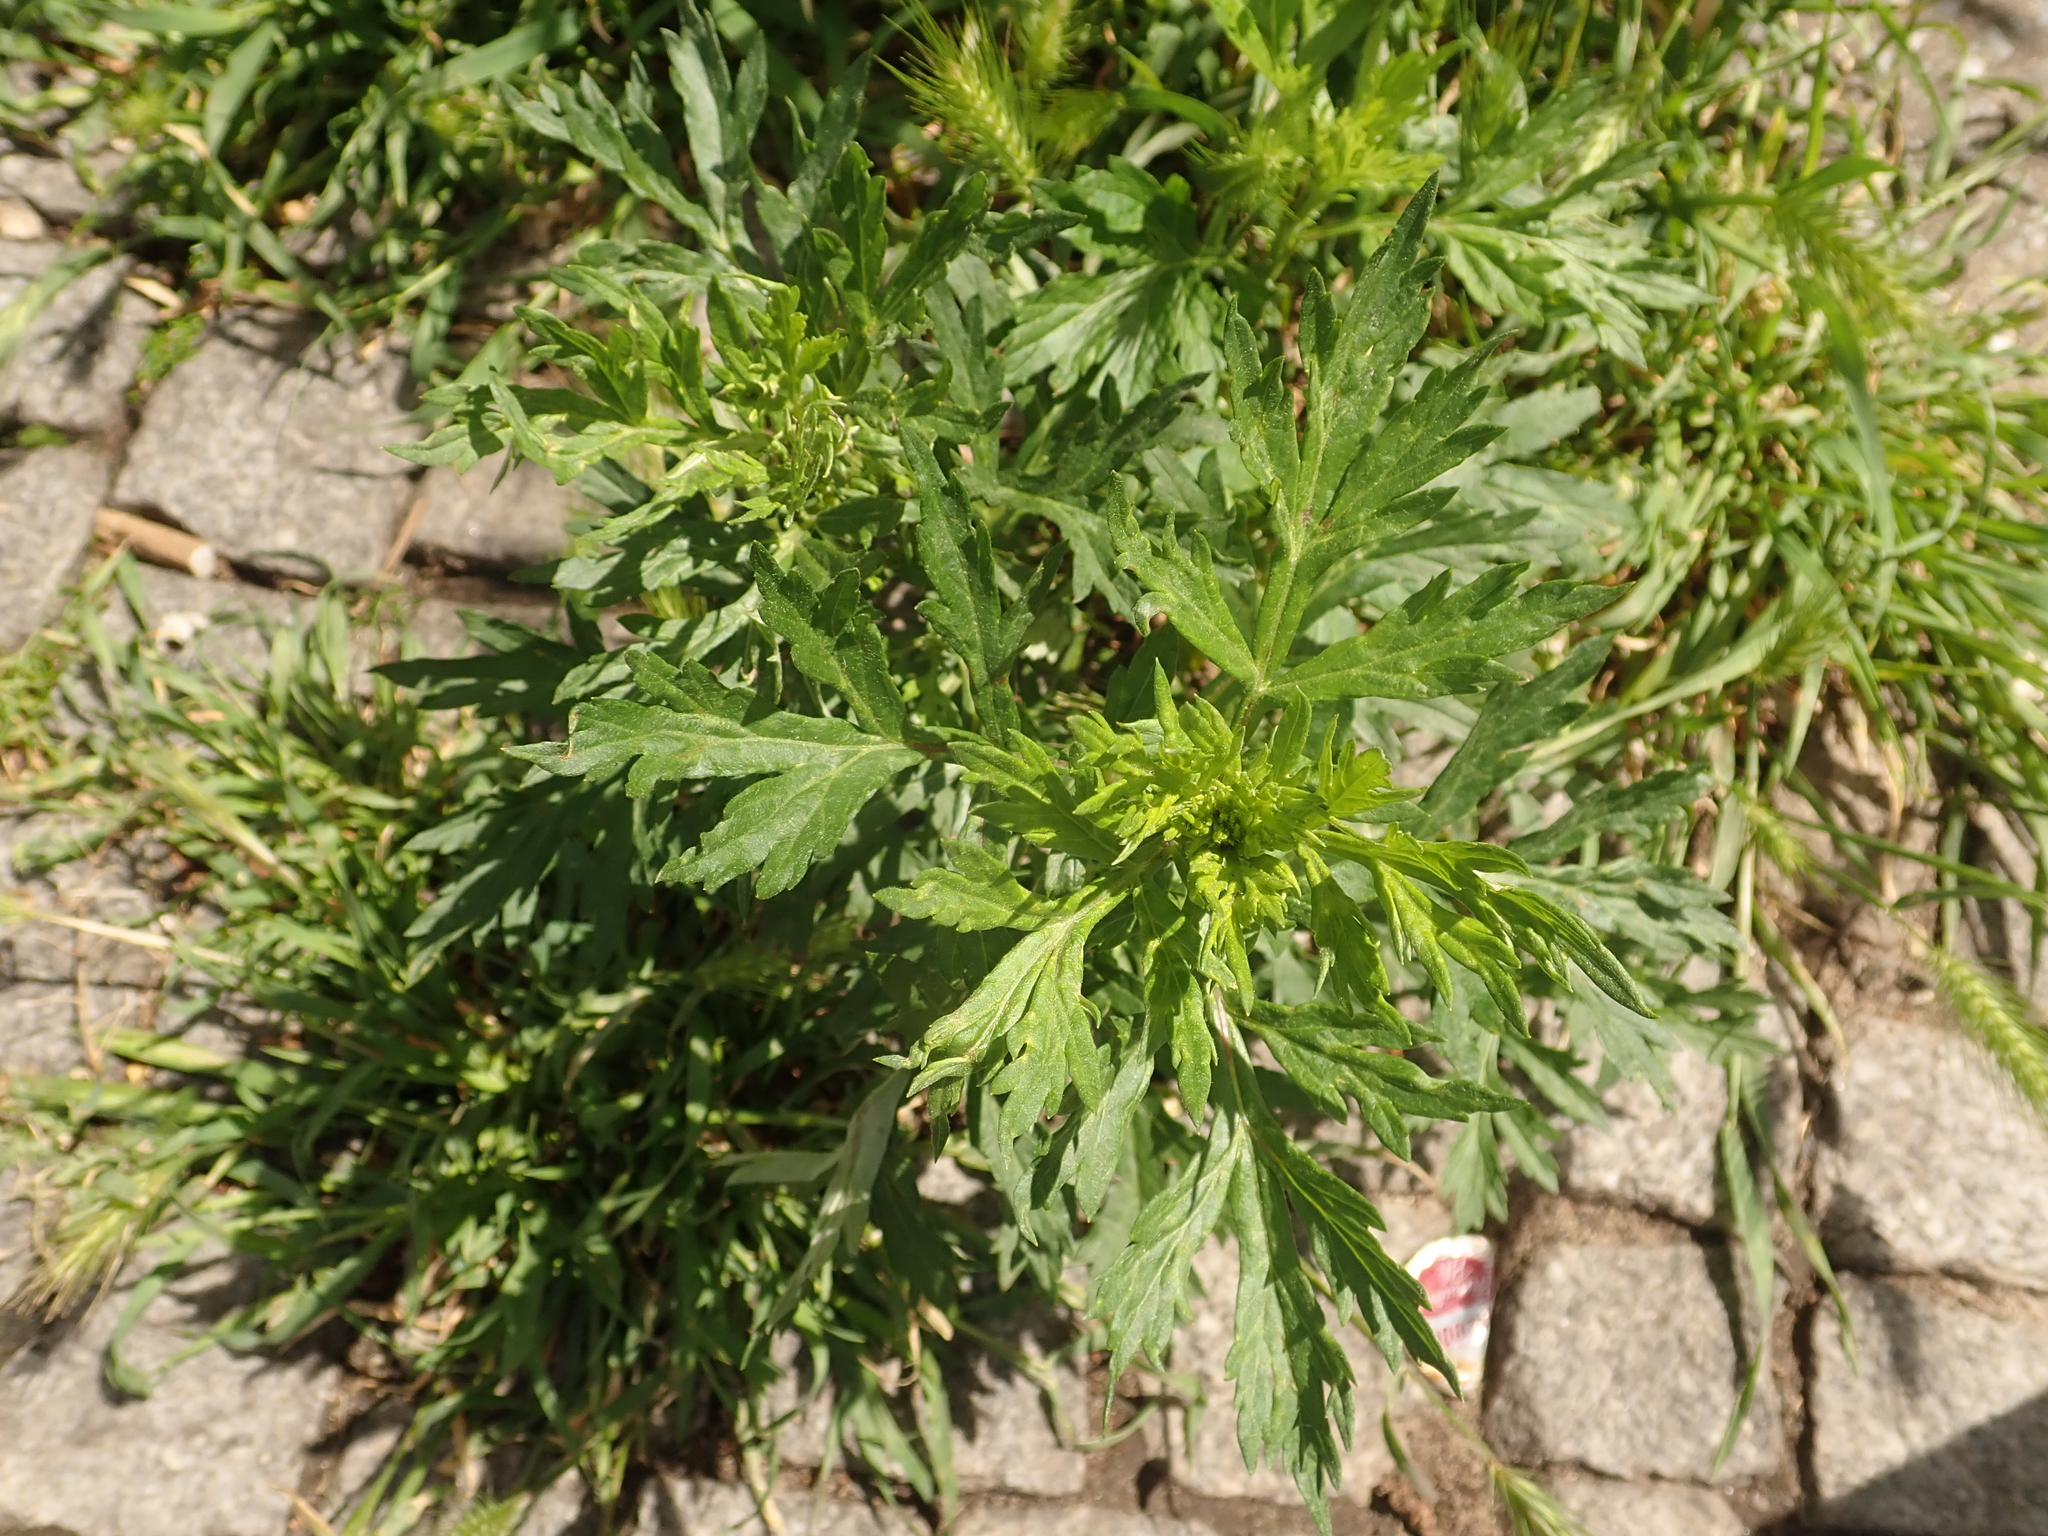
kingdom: Plantae
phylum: Tracheophyta
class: Magnoliopsida
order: Asterales
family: Asteraceae
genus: Artemisia
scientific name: Artemisia vulgaris
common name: Mugwort
